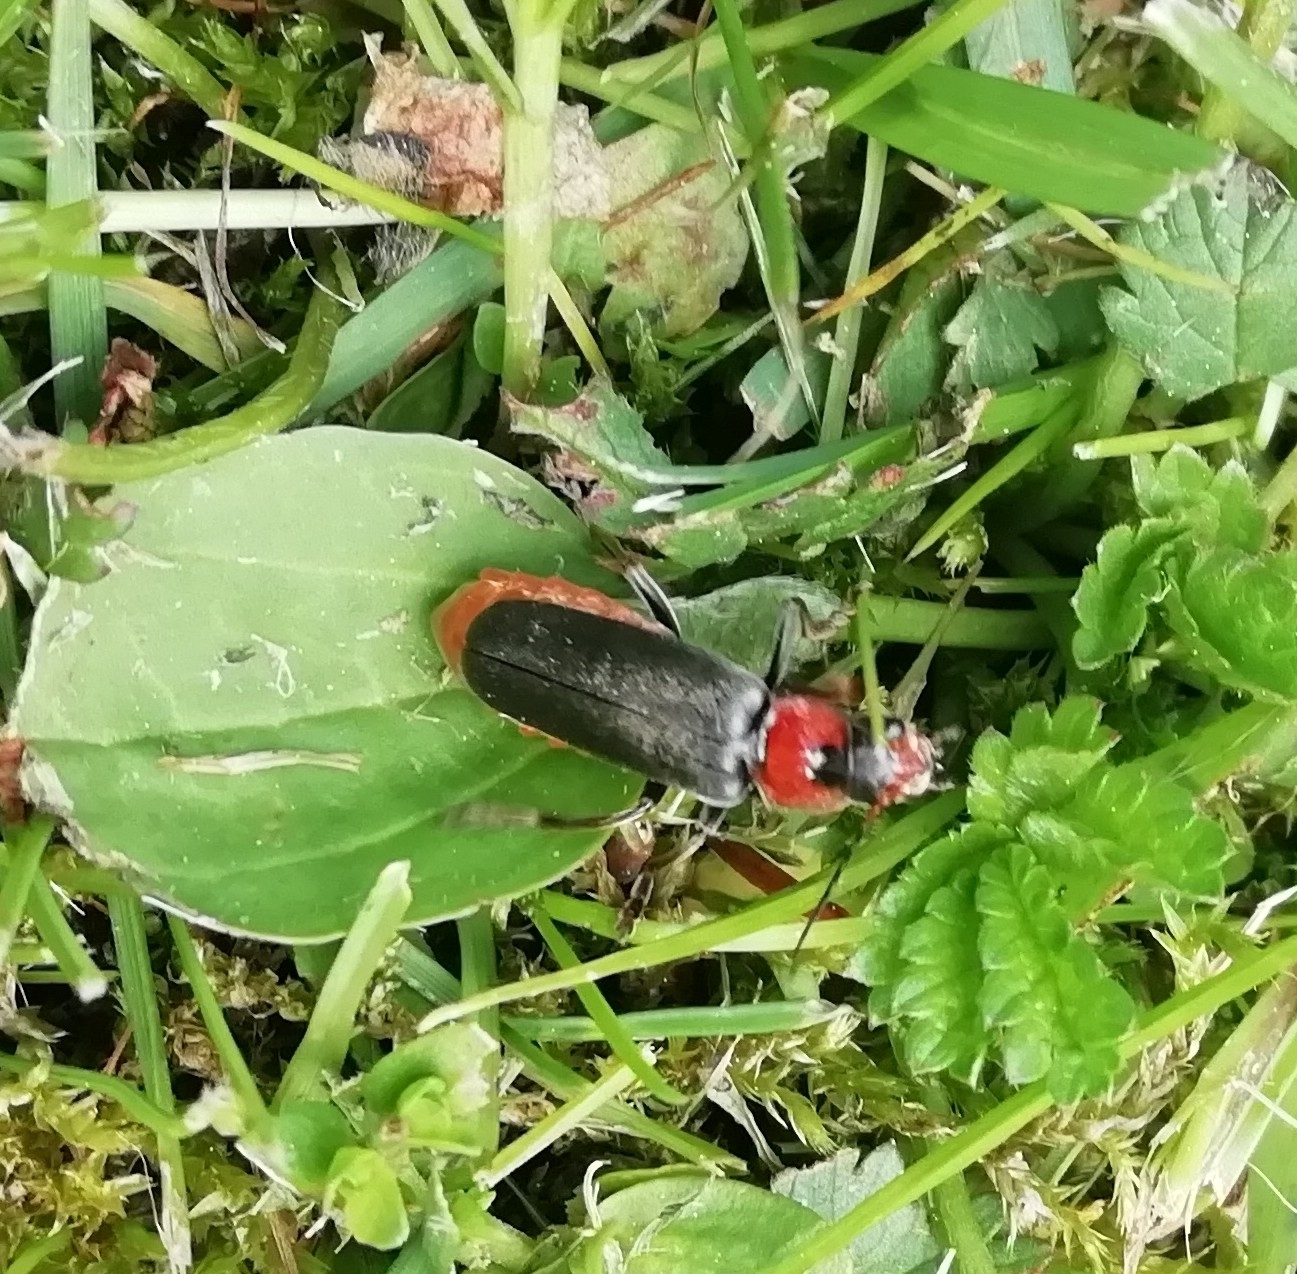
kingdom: Animalia
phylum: Arthropoda
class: Insecta
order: Coleoptera
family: Cantharidae
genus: Cantharis
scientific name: Cantharis fusca
